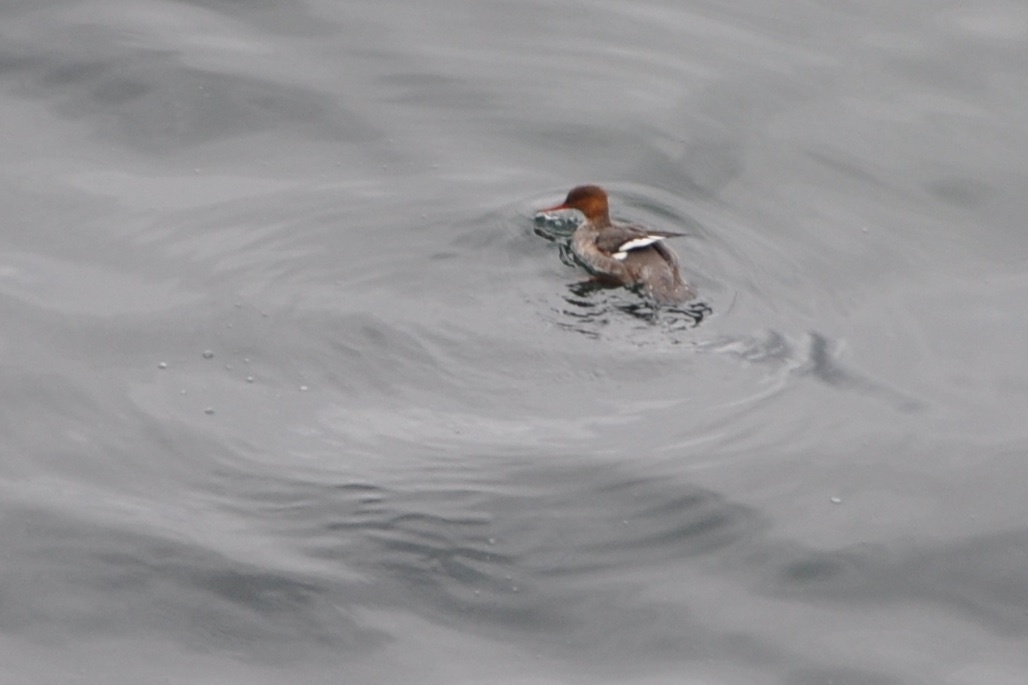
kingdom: Animalia
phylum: Chordata
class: Aves
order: Anseriformes
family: Anatidae
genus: Mergus
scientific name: Mergus serrator
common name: Red-breasted merganser
